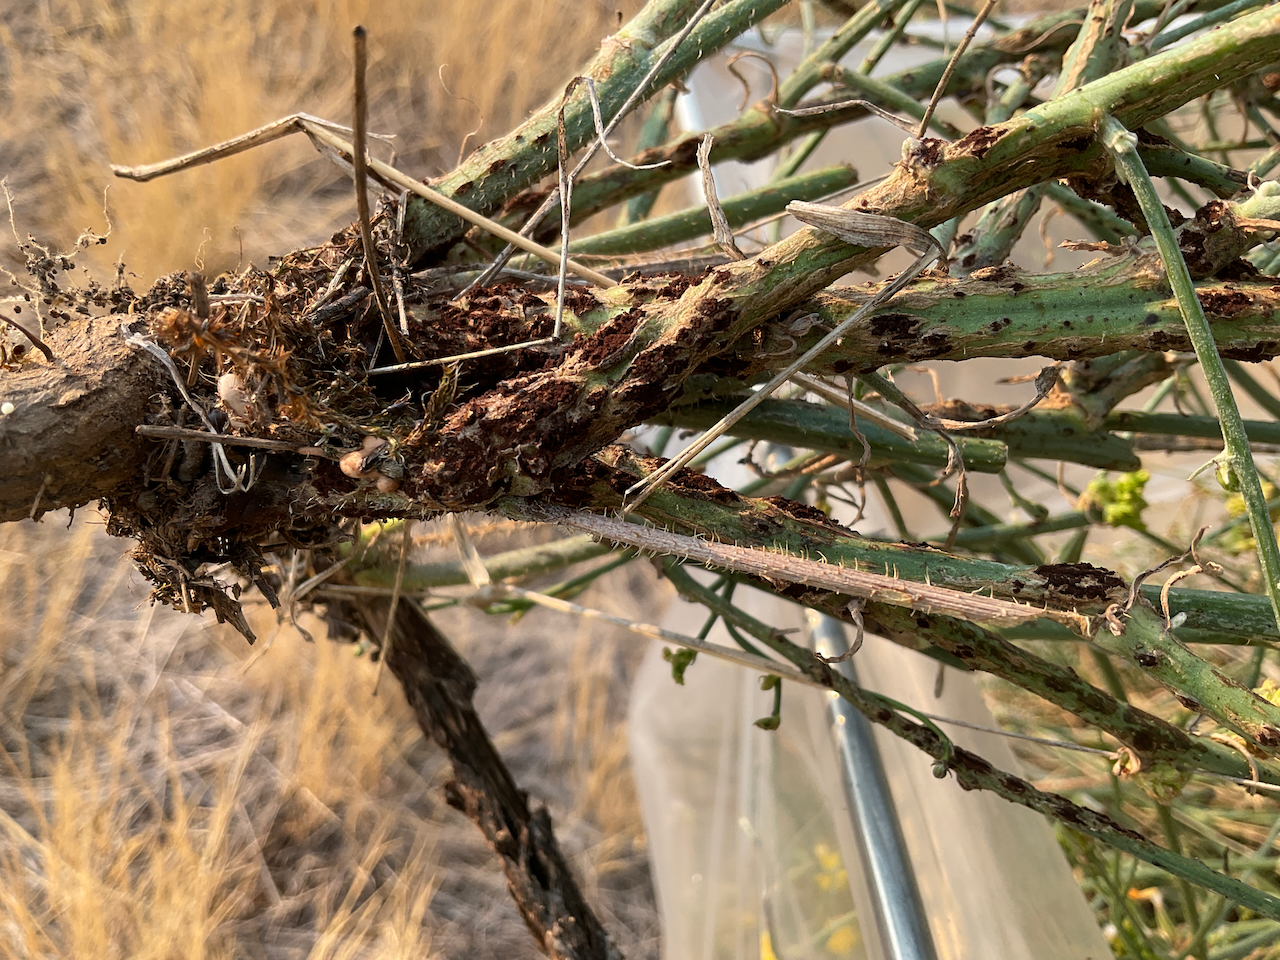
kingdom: Plantae
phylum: Tracheophyta
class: Magnoliopsida
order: Asterales
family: Asteraceae
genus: Chondrilla
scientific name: Chondrilla juncea
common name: Skeleton weed
